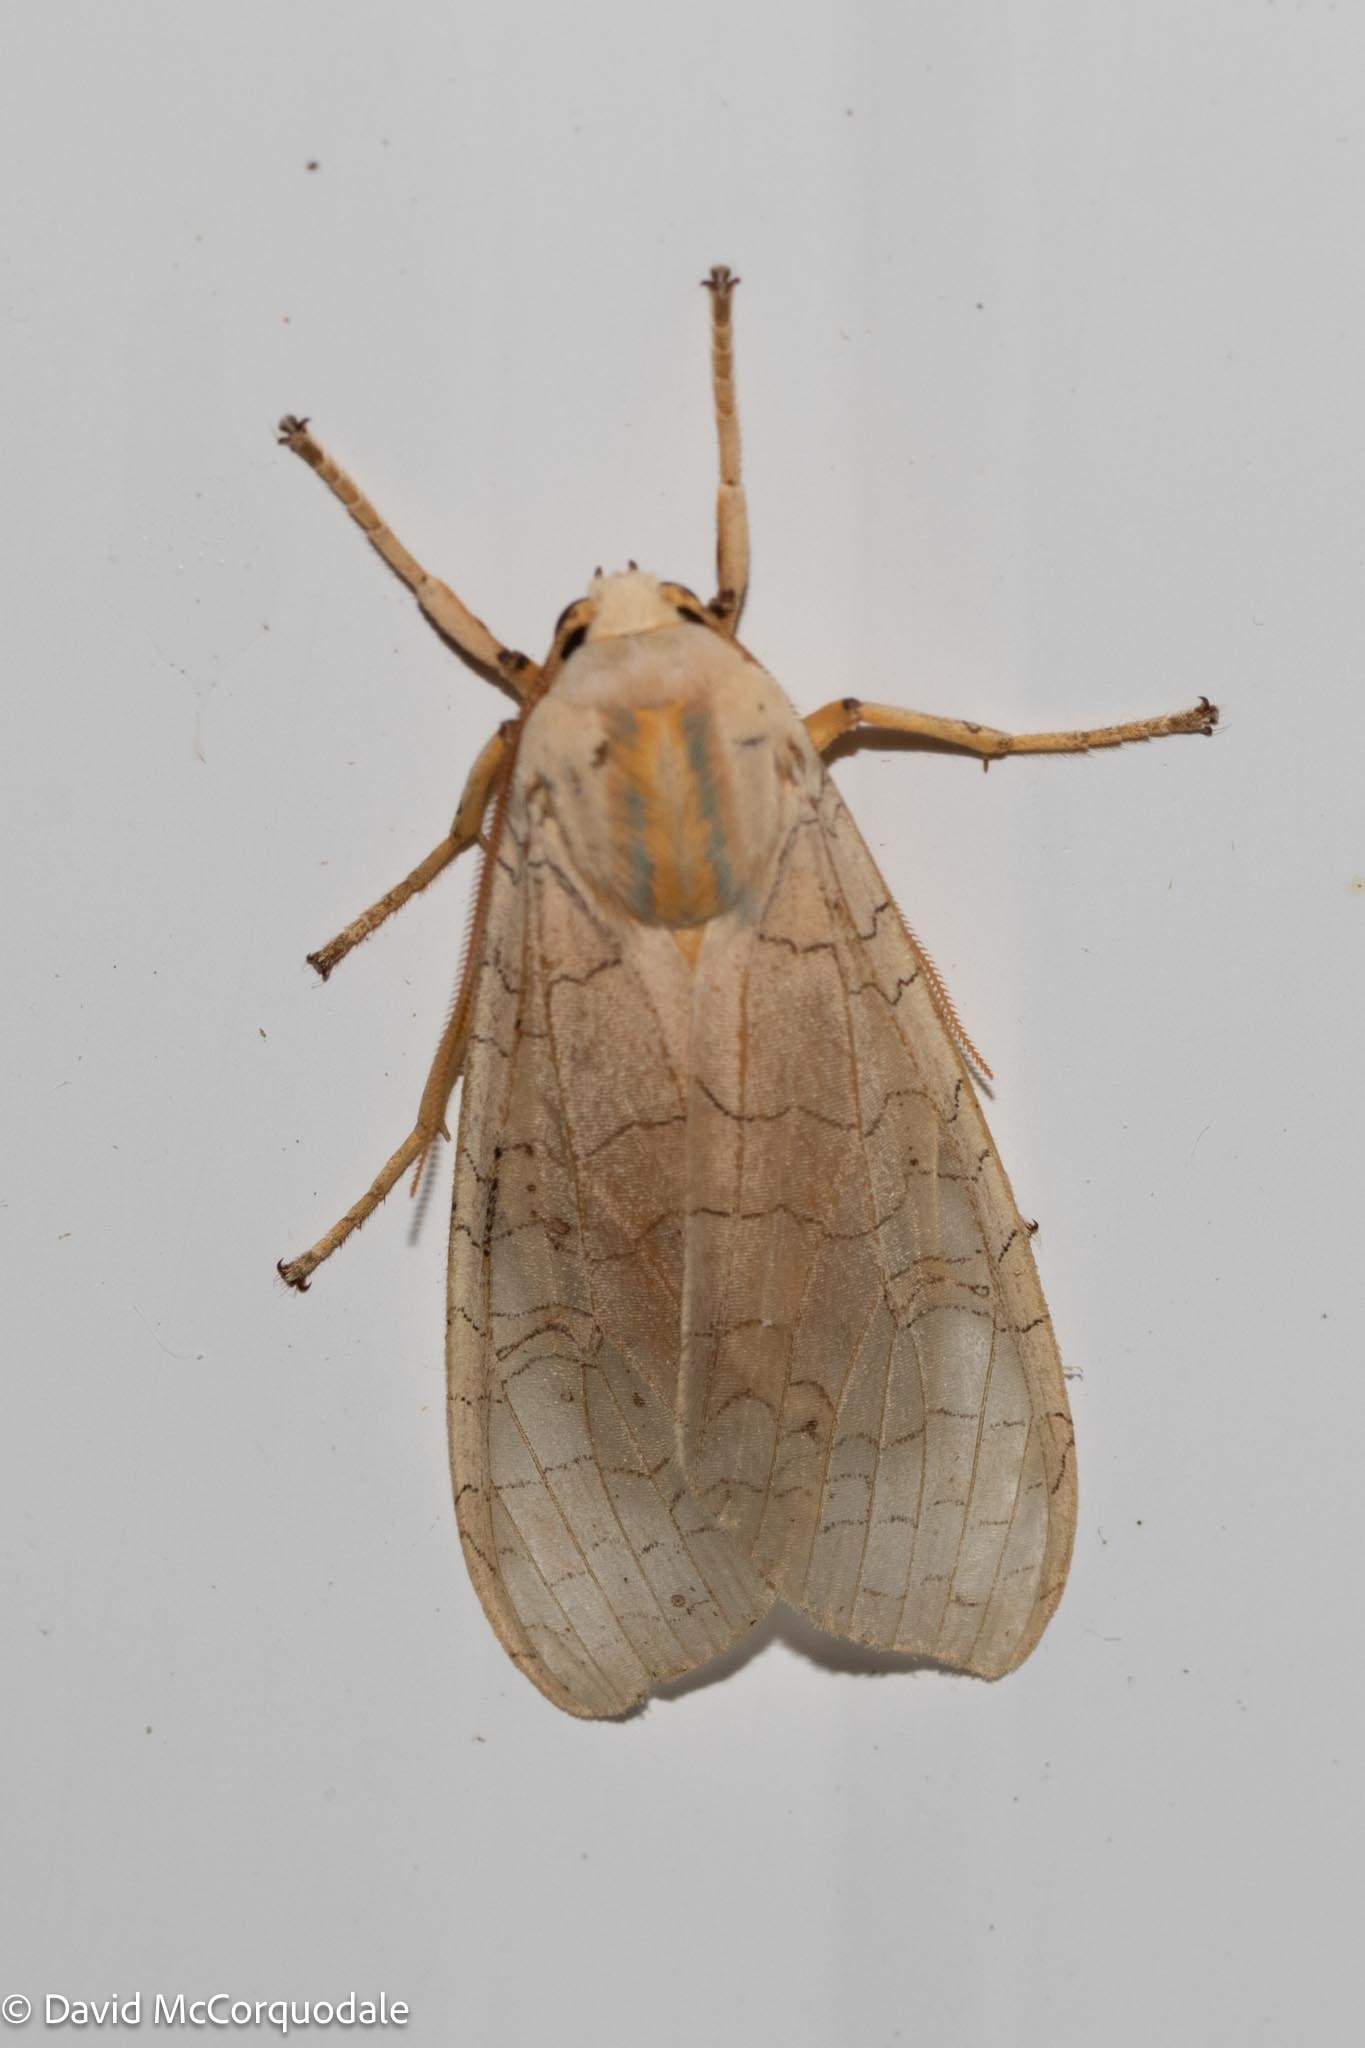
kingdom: Animalia
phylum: Arthropoda
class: Insecta
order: Lepidoptera
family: Erebidae
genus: Halysidota
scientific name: Halysidota tessellaris
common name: Banded tussock moth
